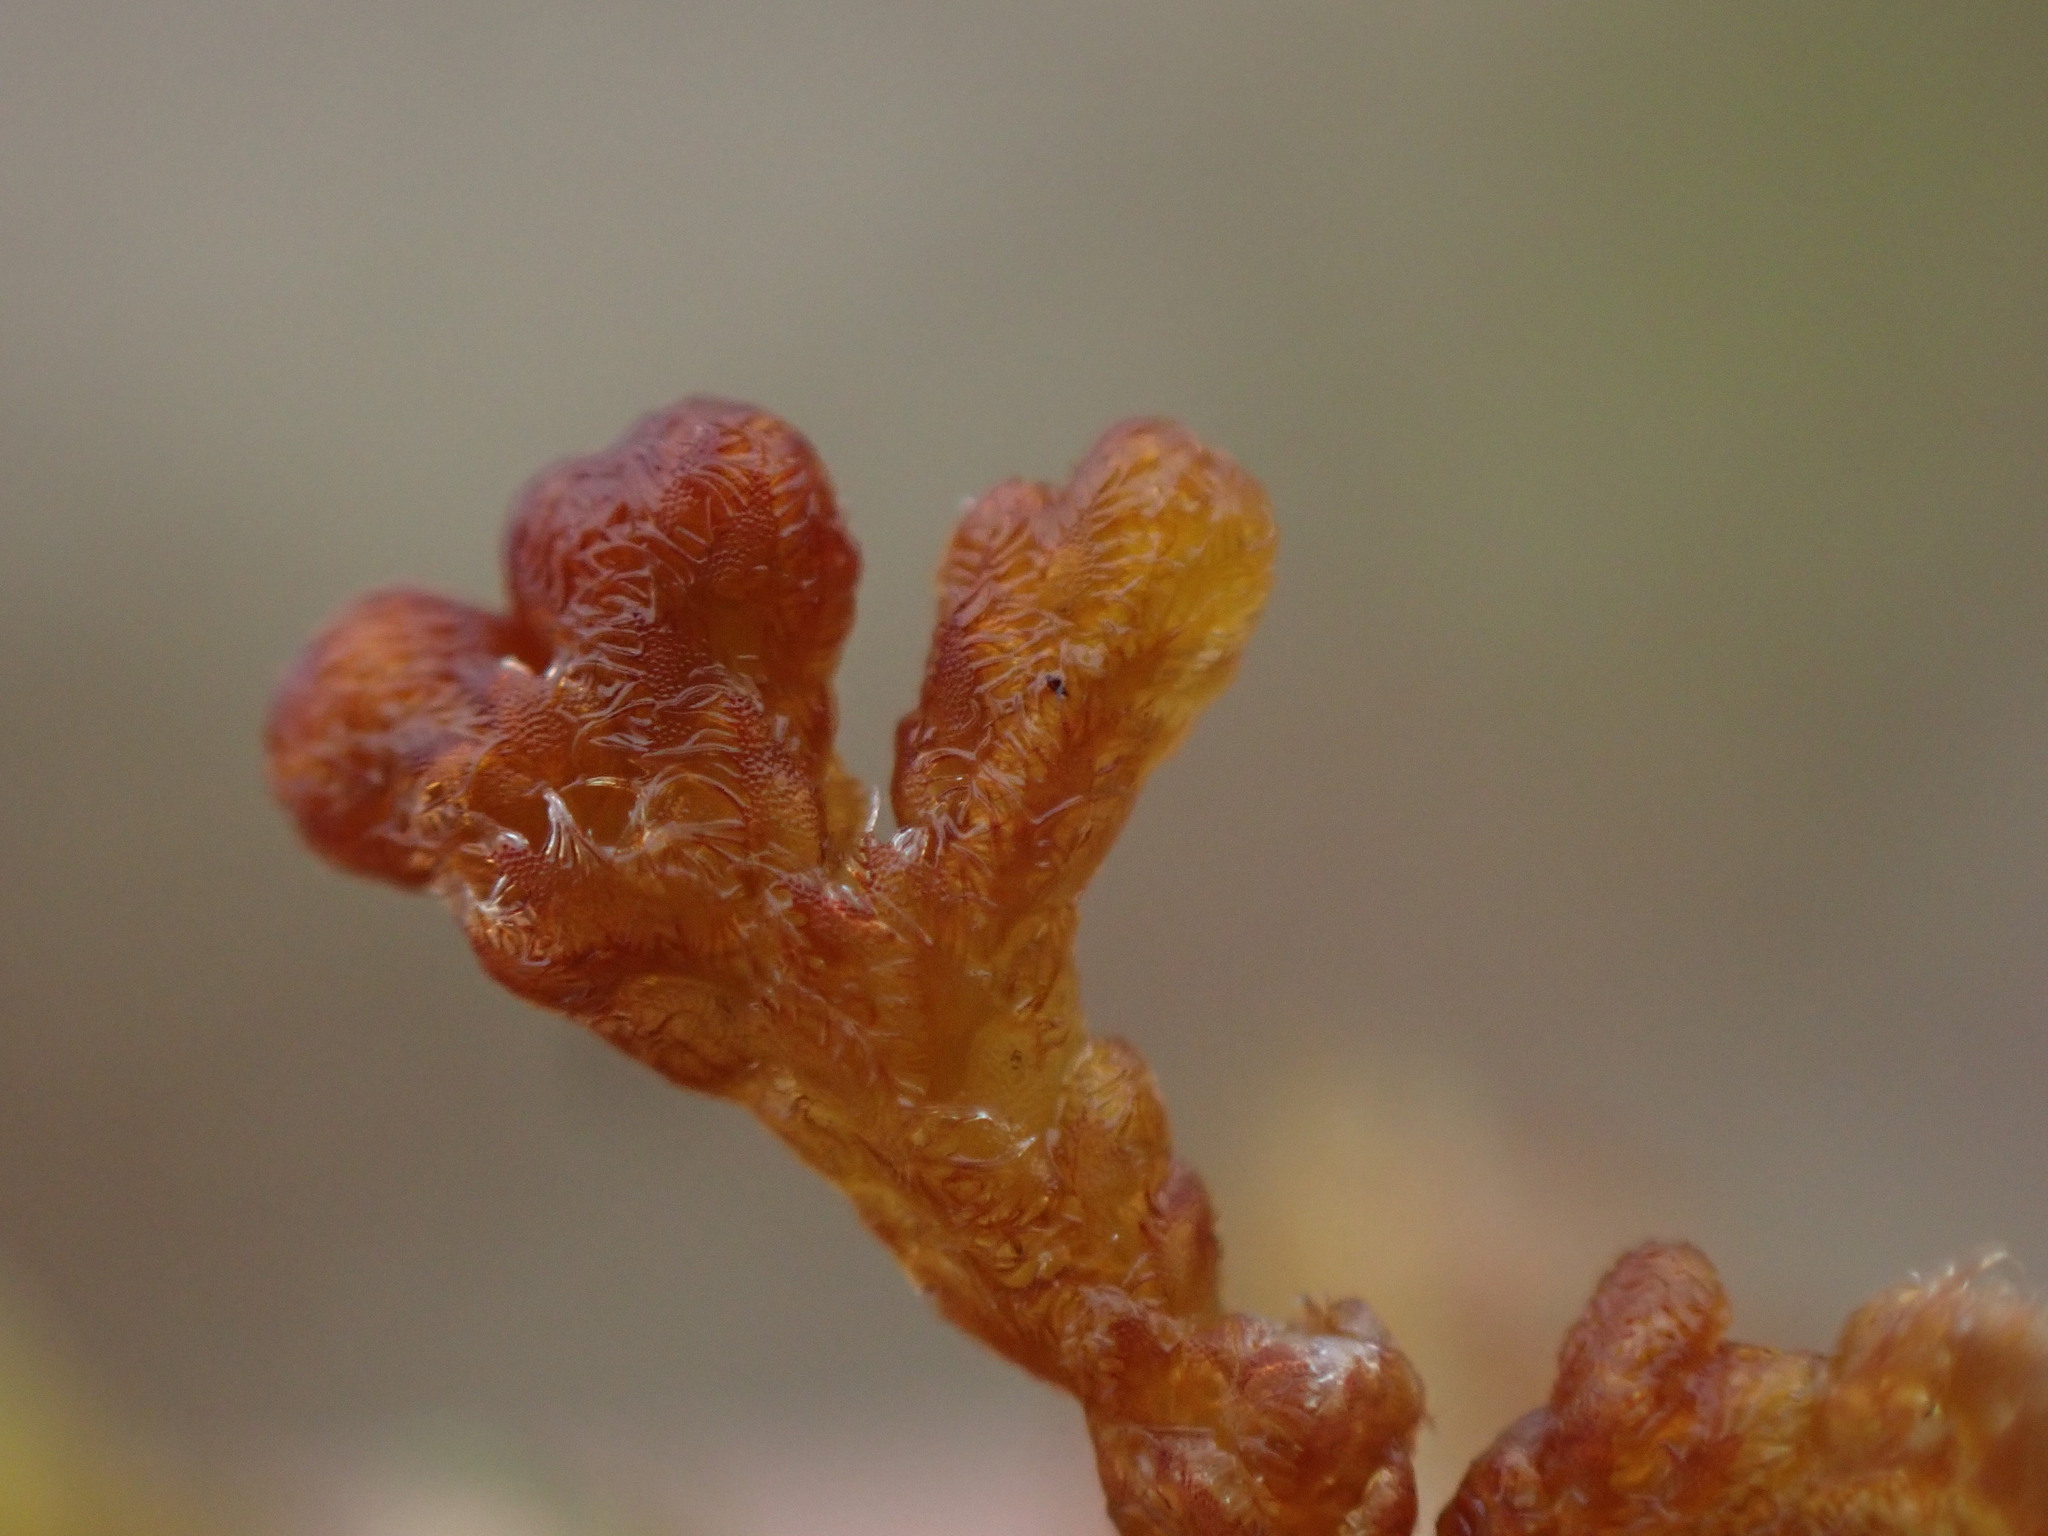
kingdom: Plantae
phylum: Marchantiophyta
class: Jungermanniopsida
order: Ptilidiales
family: Ptilidiaceae
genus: Ptilidium
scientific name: Ptilidium ciliare
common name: Ciliate fringewort
